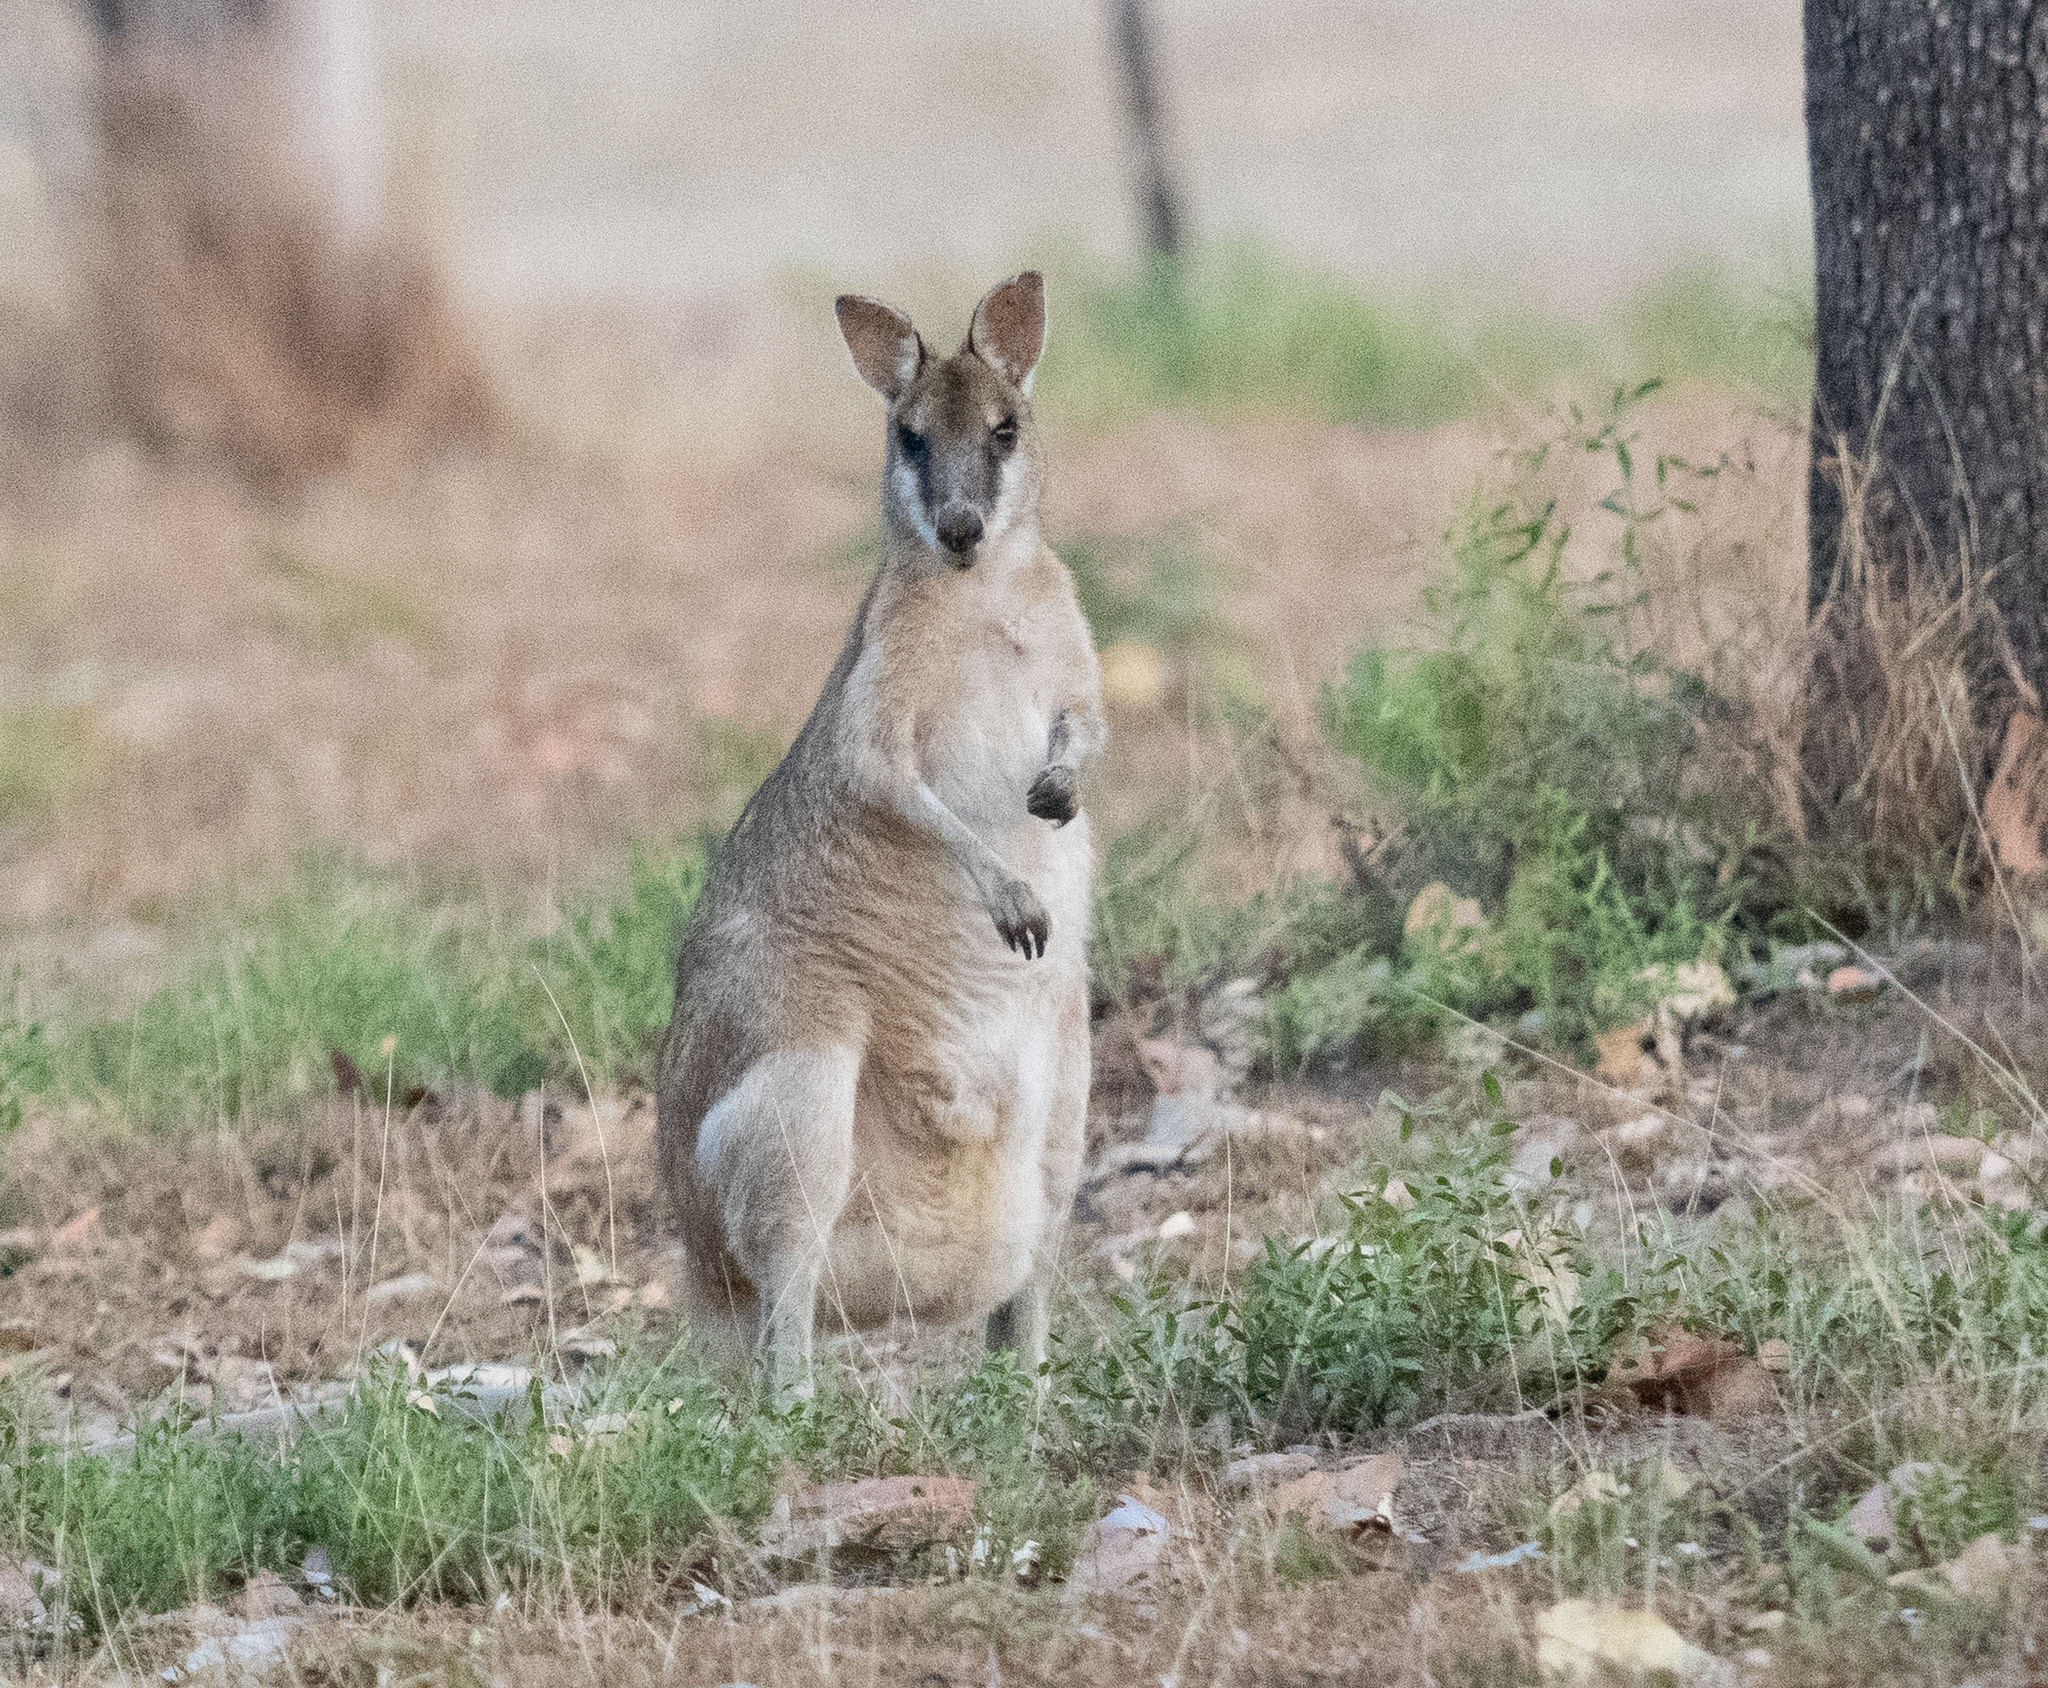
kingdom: Animalia
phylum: Chordata
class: Mammalia
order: Diprotodontia
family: Macropodidae
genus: Macropus
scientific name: Macropus agilis
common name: Agile wallaby
